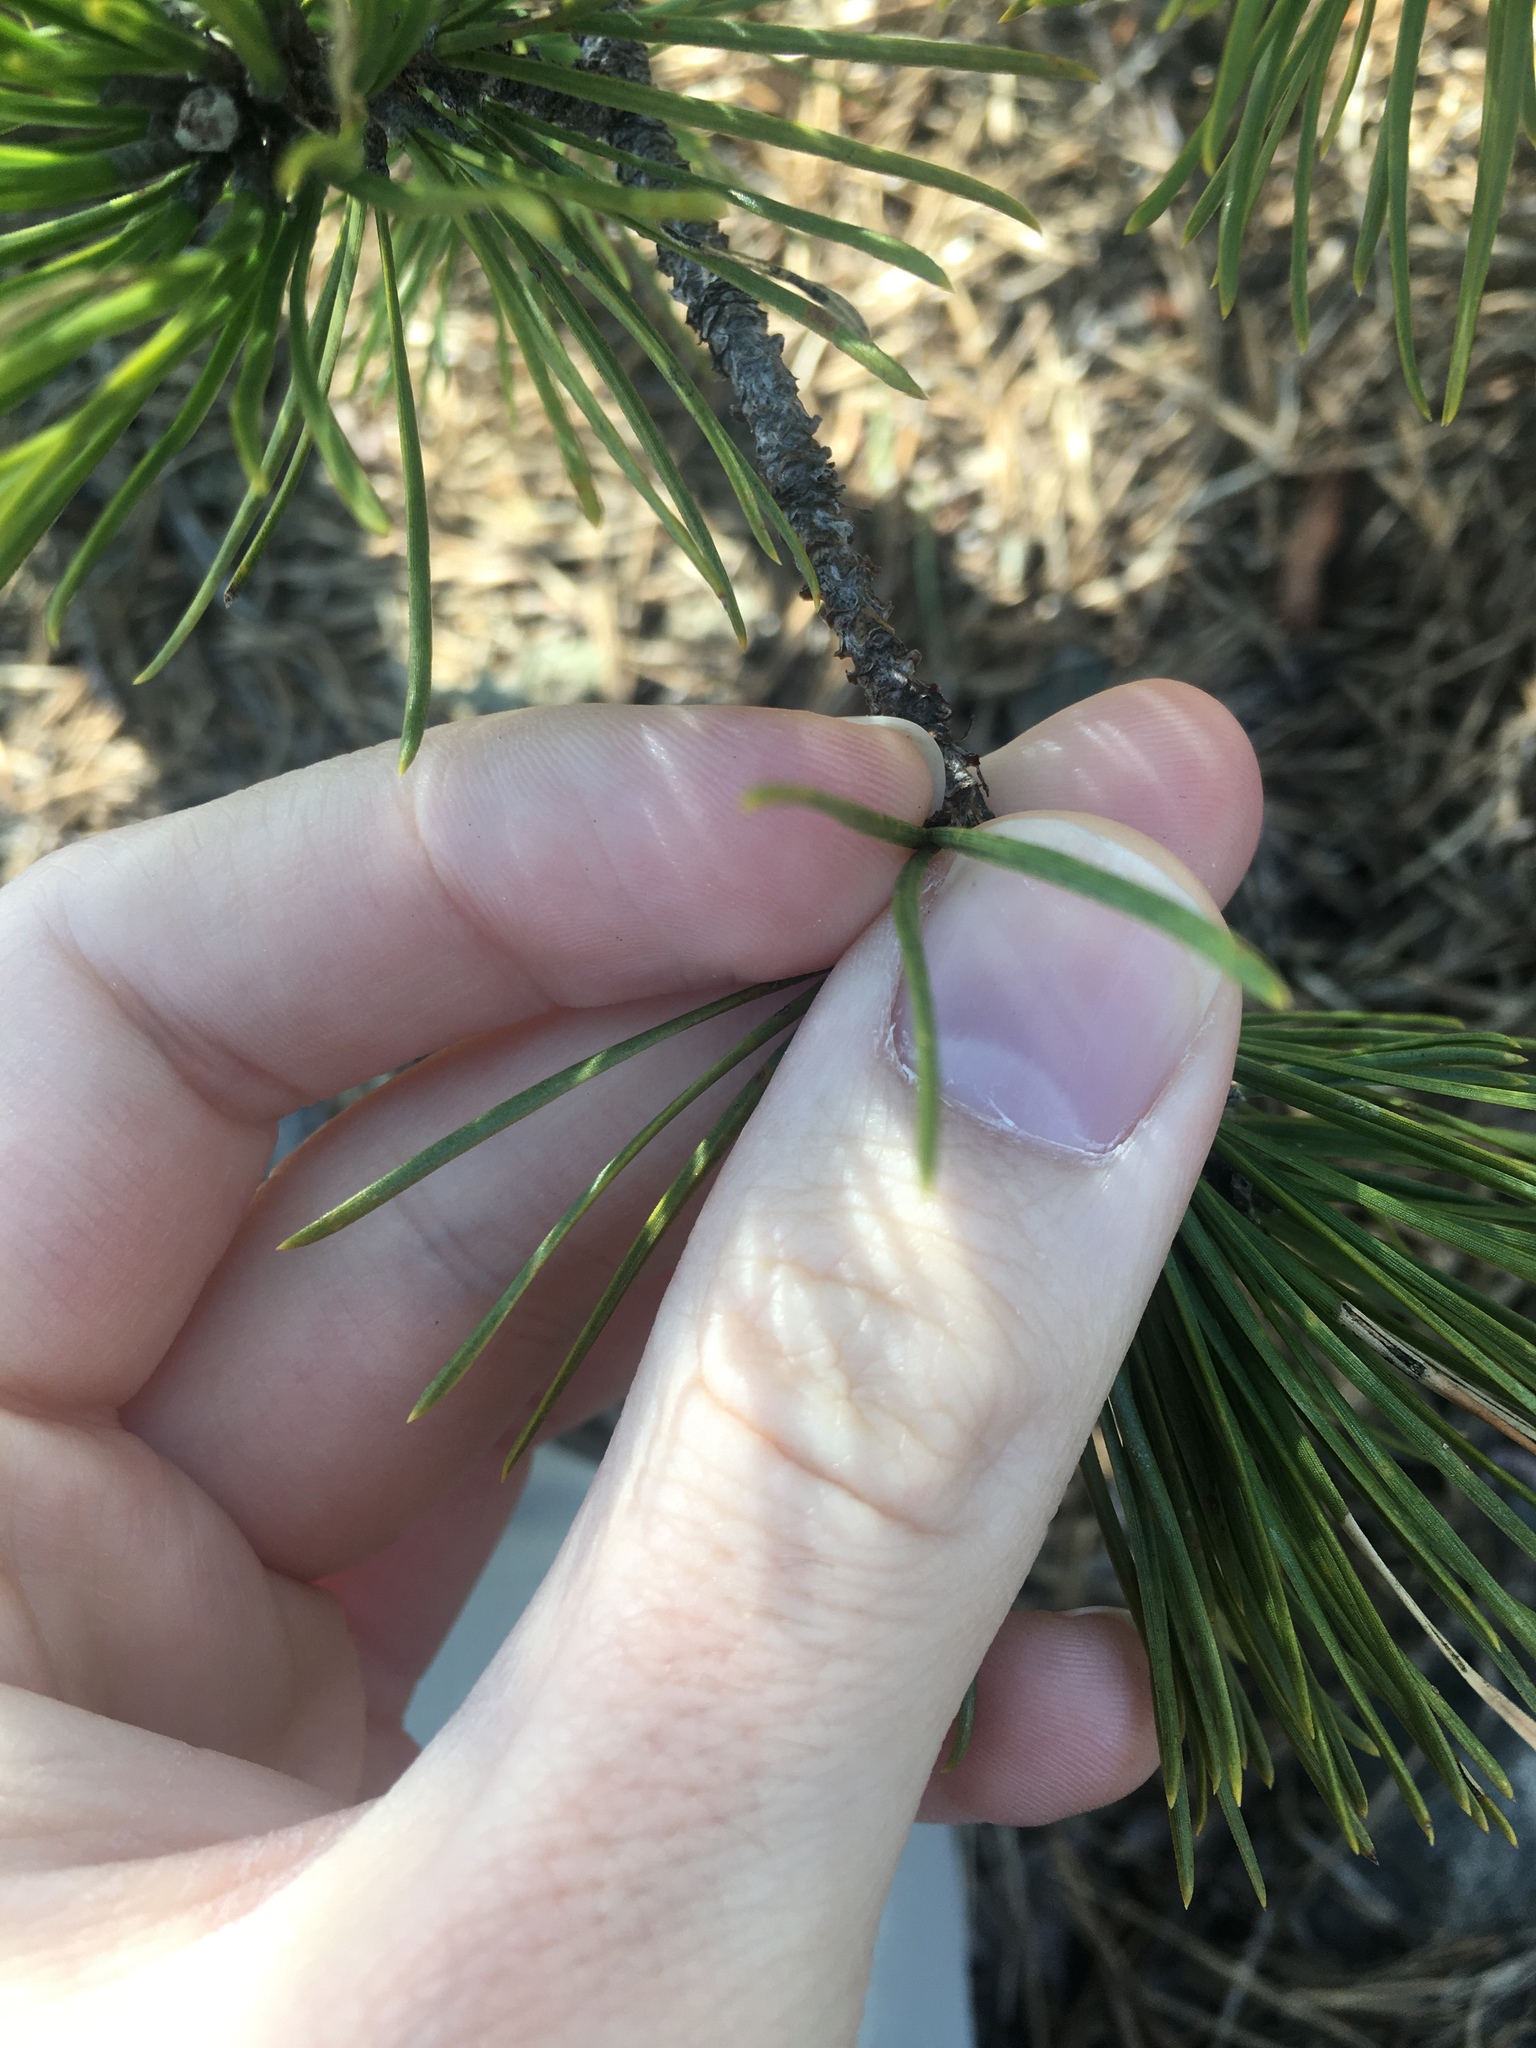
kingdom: Plantae
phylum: Tracheophyta
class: Pinopsida
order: Pinales
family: Pinaceae
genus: Pinus
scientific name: Pinus rigida
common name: Pitch pine
